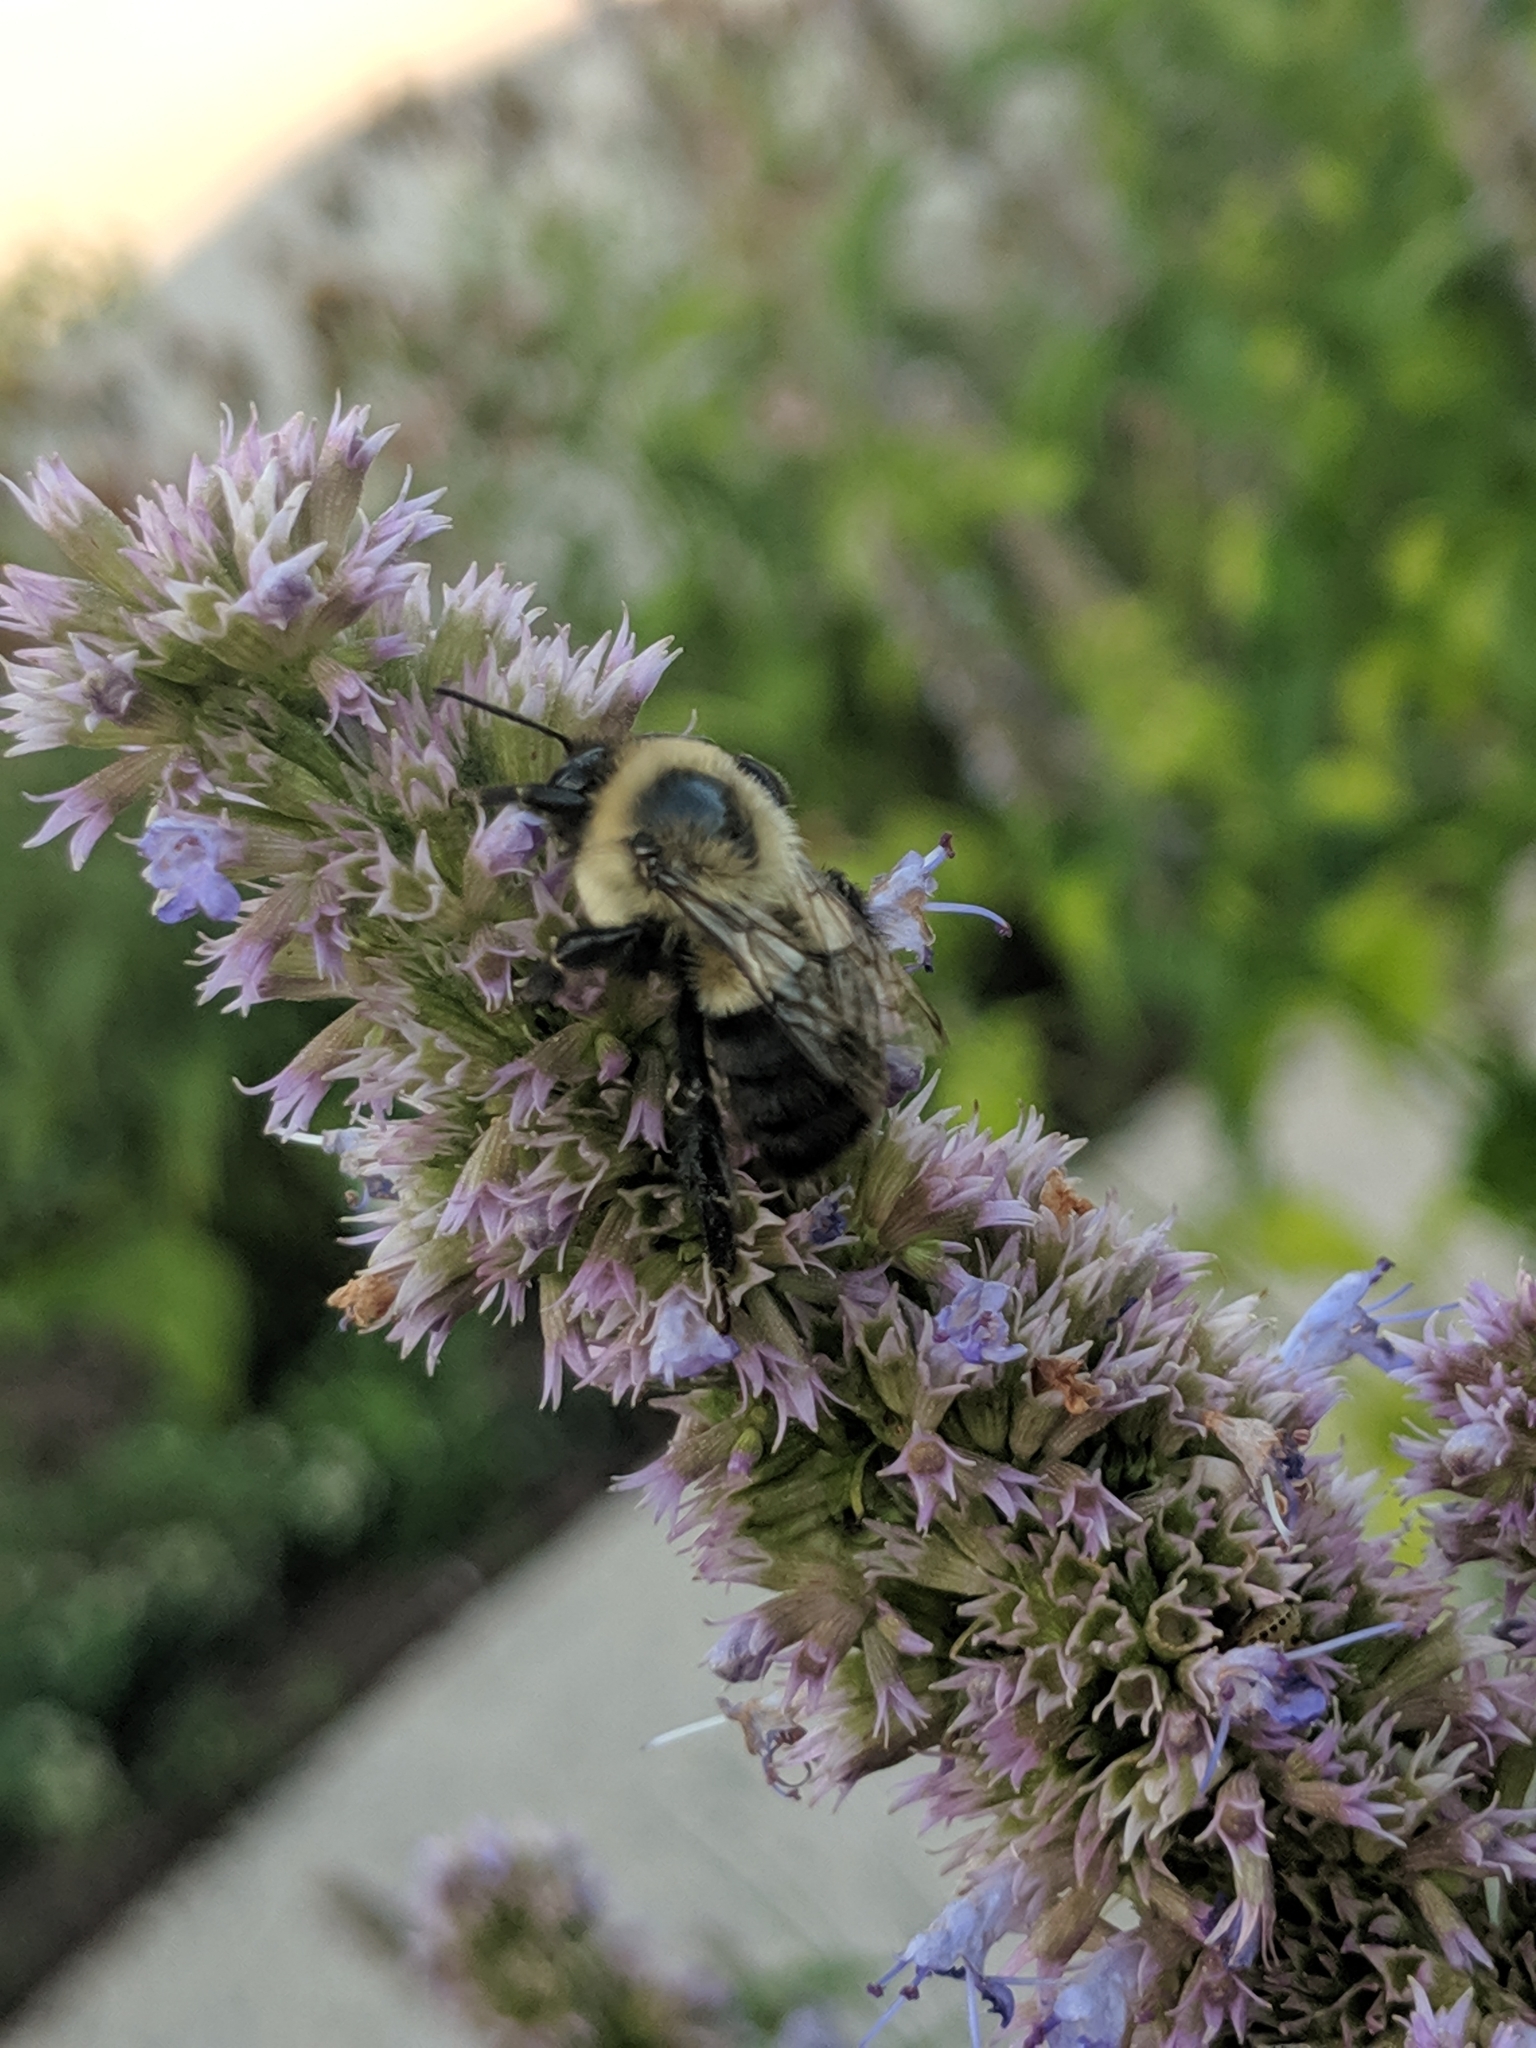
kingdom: Animalia
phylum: Arthropoda
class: Insecta
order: Hymenoptera
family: Apidae
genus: Bombus
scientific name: Bombus impatiens
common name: Common eastern bumble bee
